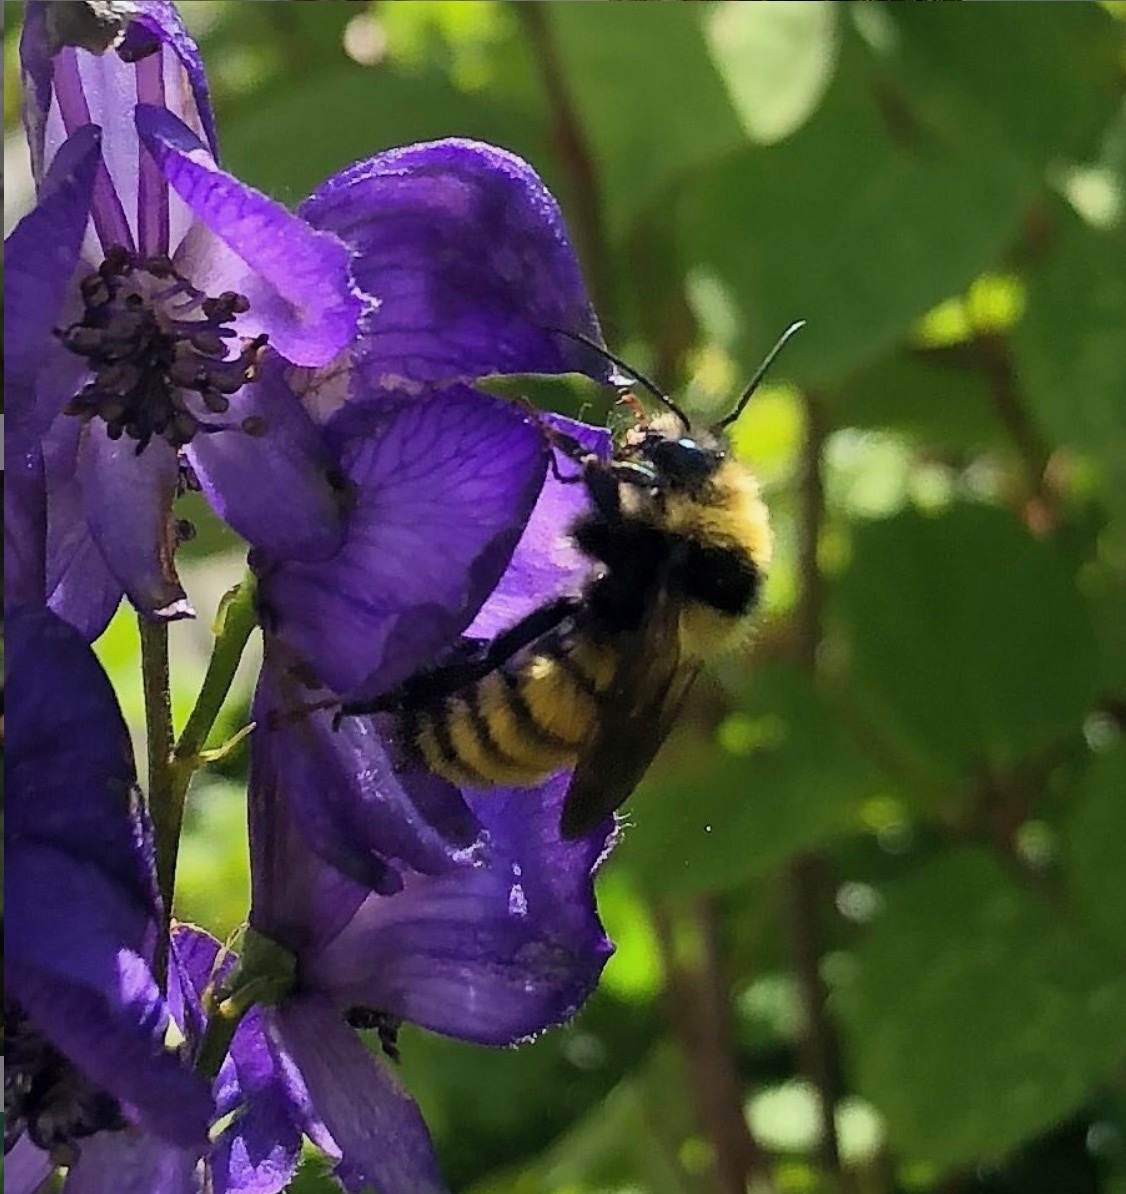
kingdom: Animalia
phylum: Arthropoda
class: Insecta
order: Hymenoptera
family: Apidae
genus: Bombus
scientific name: Bombus borealis
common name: Northern amber bumble bee
